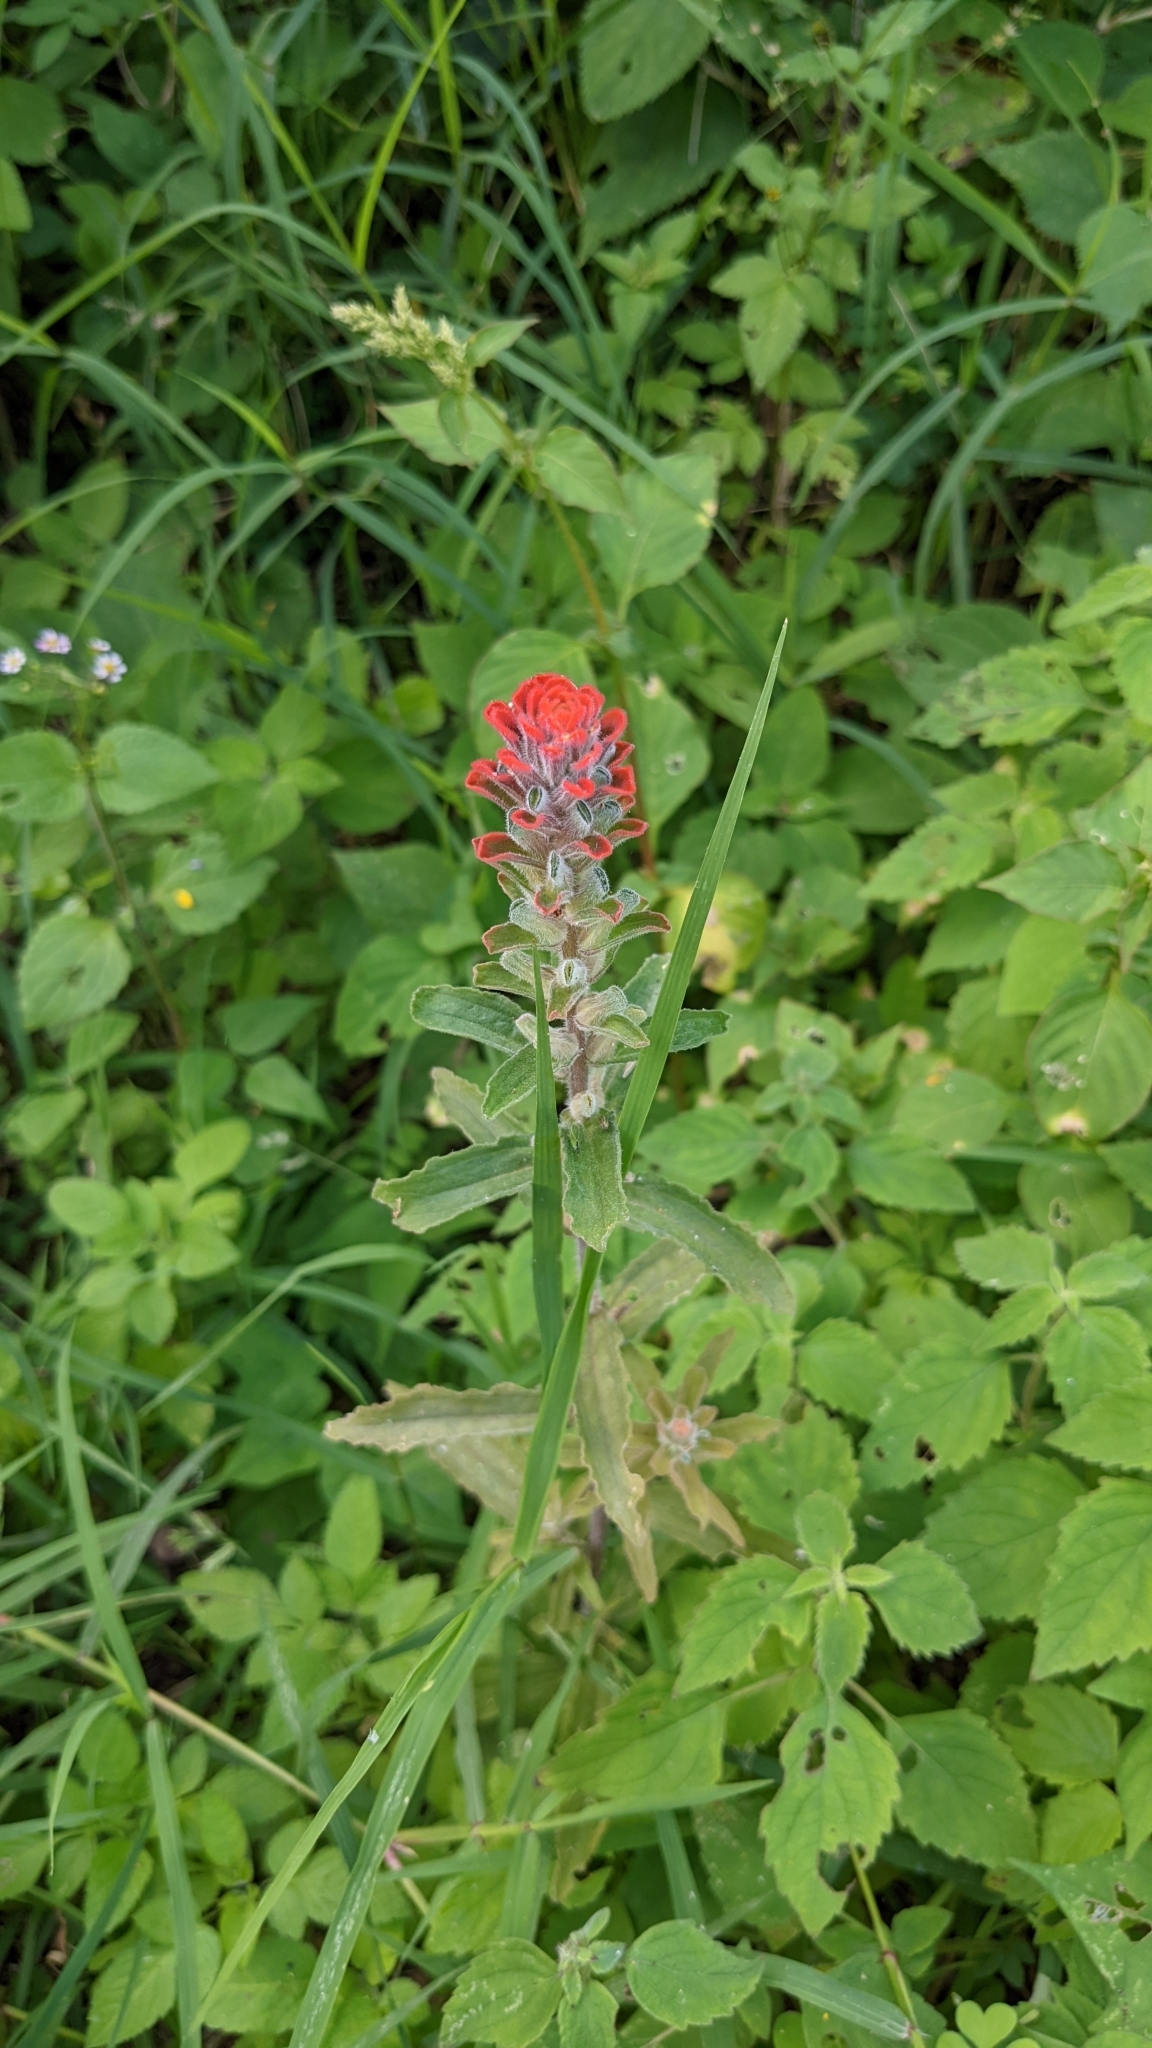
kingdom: Plantae
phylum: Tracheophyta
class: Magnoliopsida
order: Lamiales
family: Orobanchaceae
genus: Castilleja
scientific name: Castilleja arvensis
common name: Indian paintbrush
